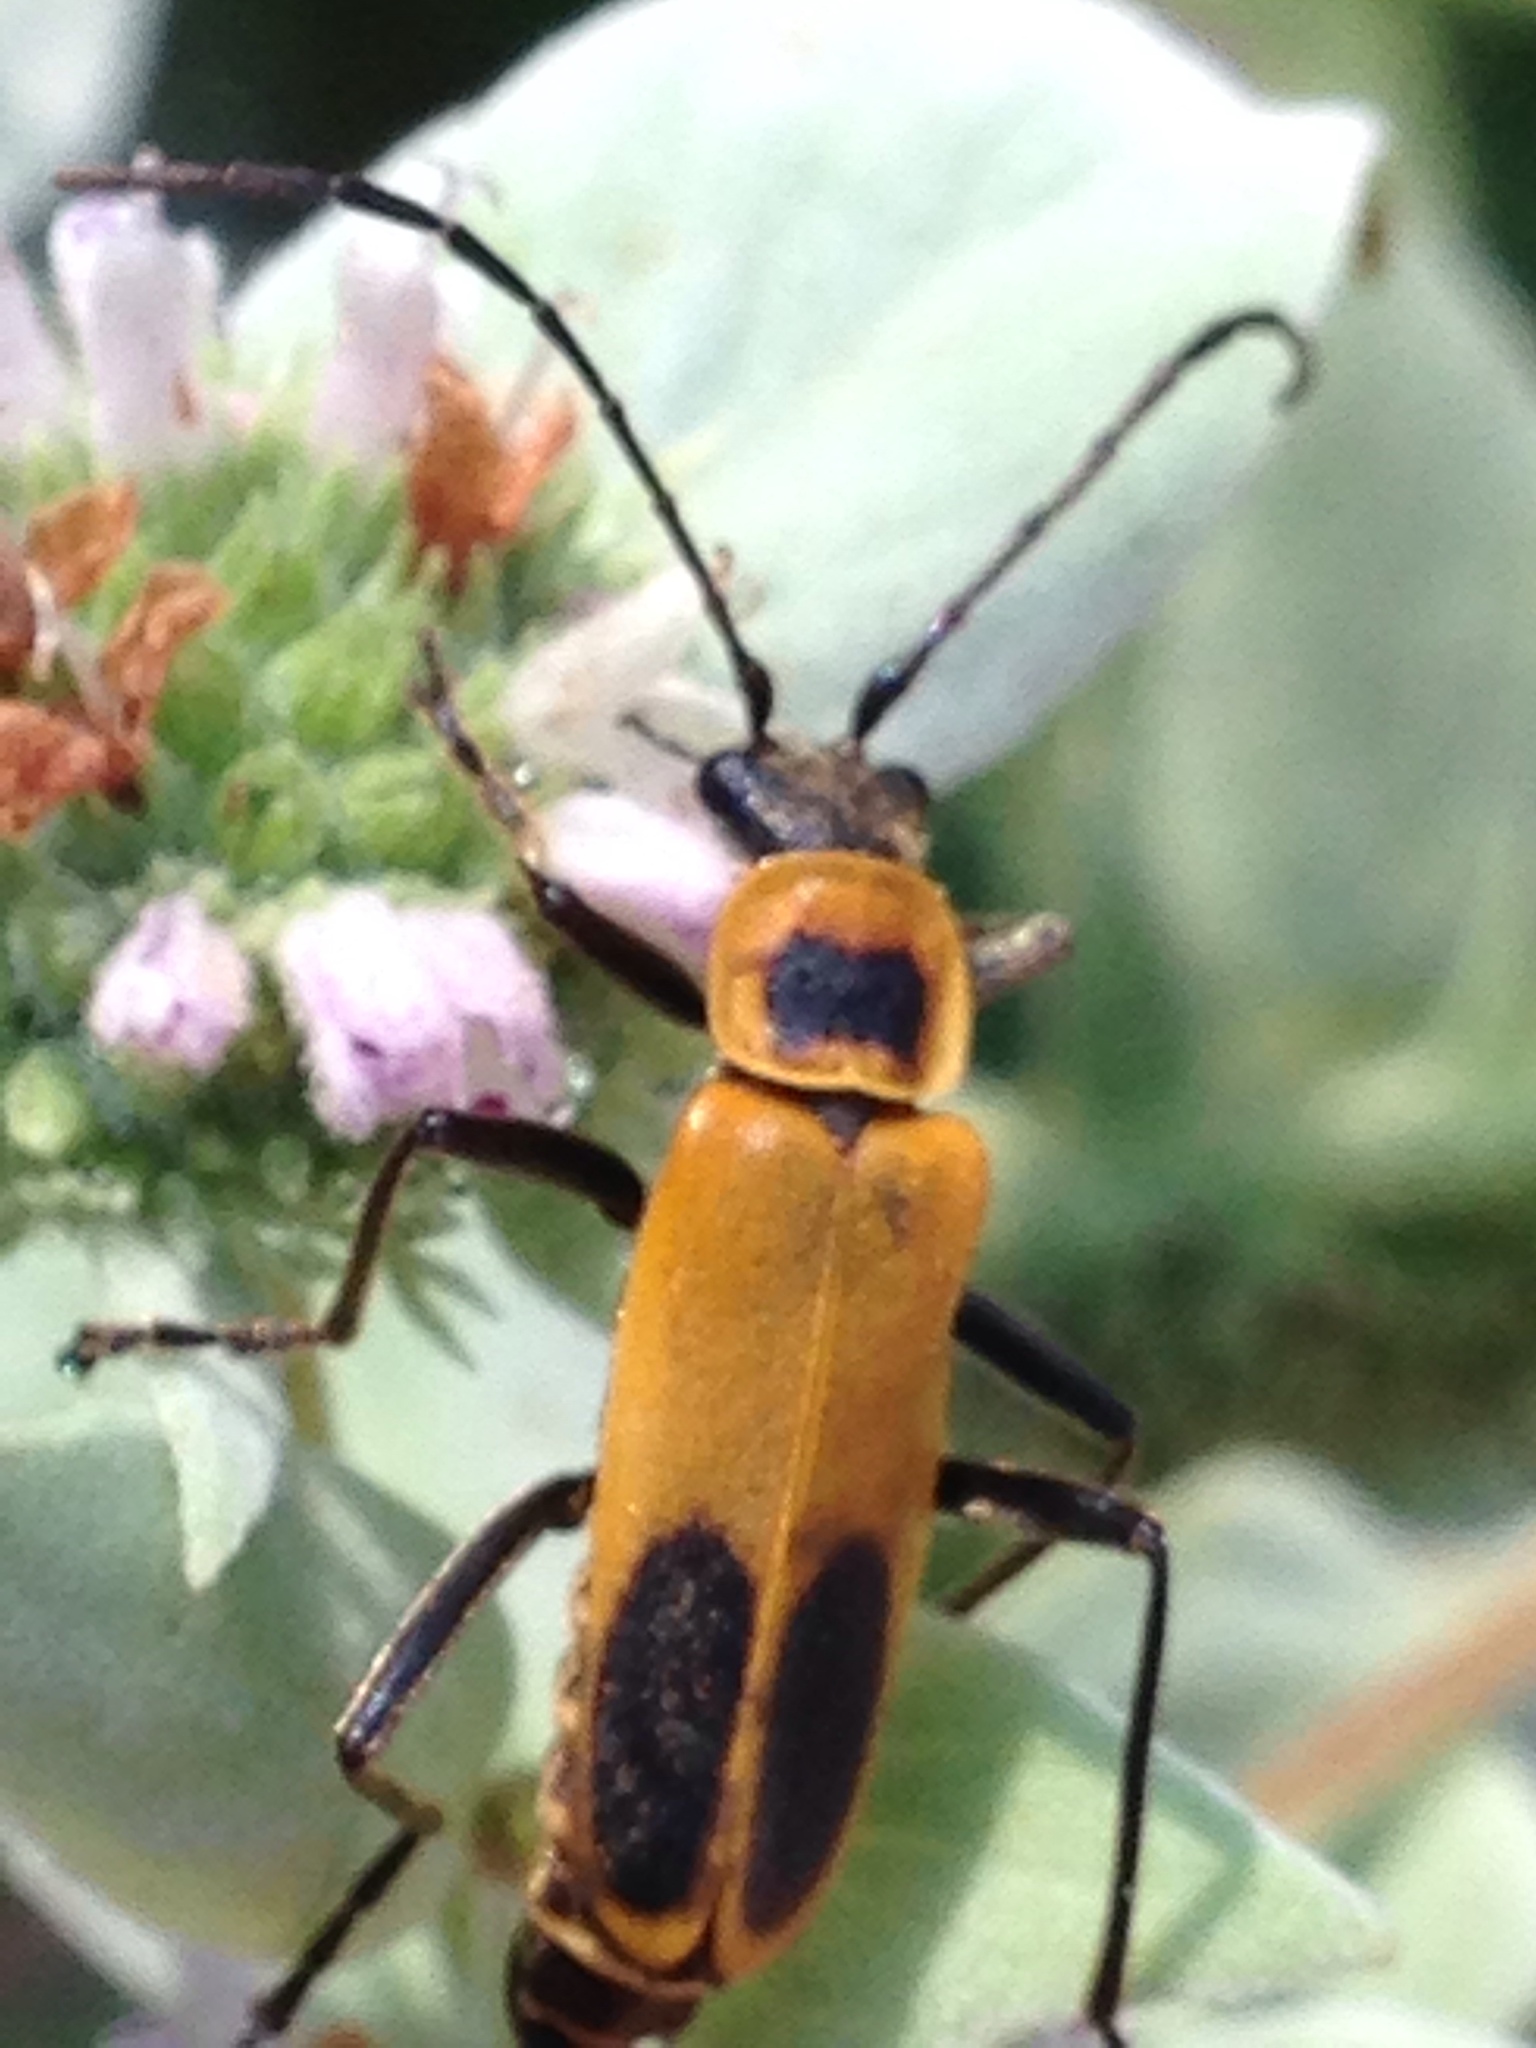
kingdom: Animalia
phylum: Arthropoda
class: Insecta
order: Coleoptera
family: Cantharidae
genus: Chauliognathus
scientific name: Chauliognathus pensylvanicus
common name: Goldenrod soldier beetle
